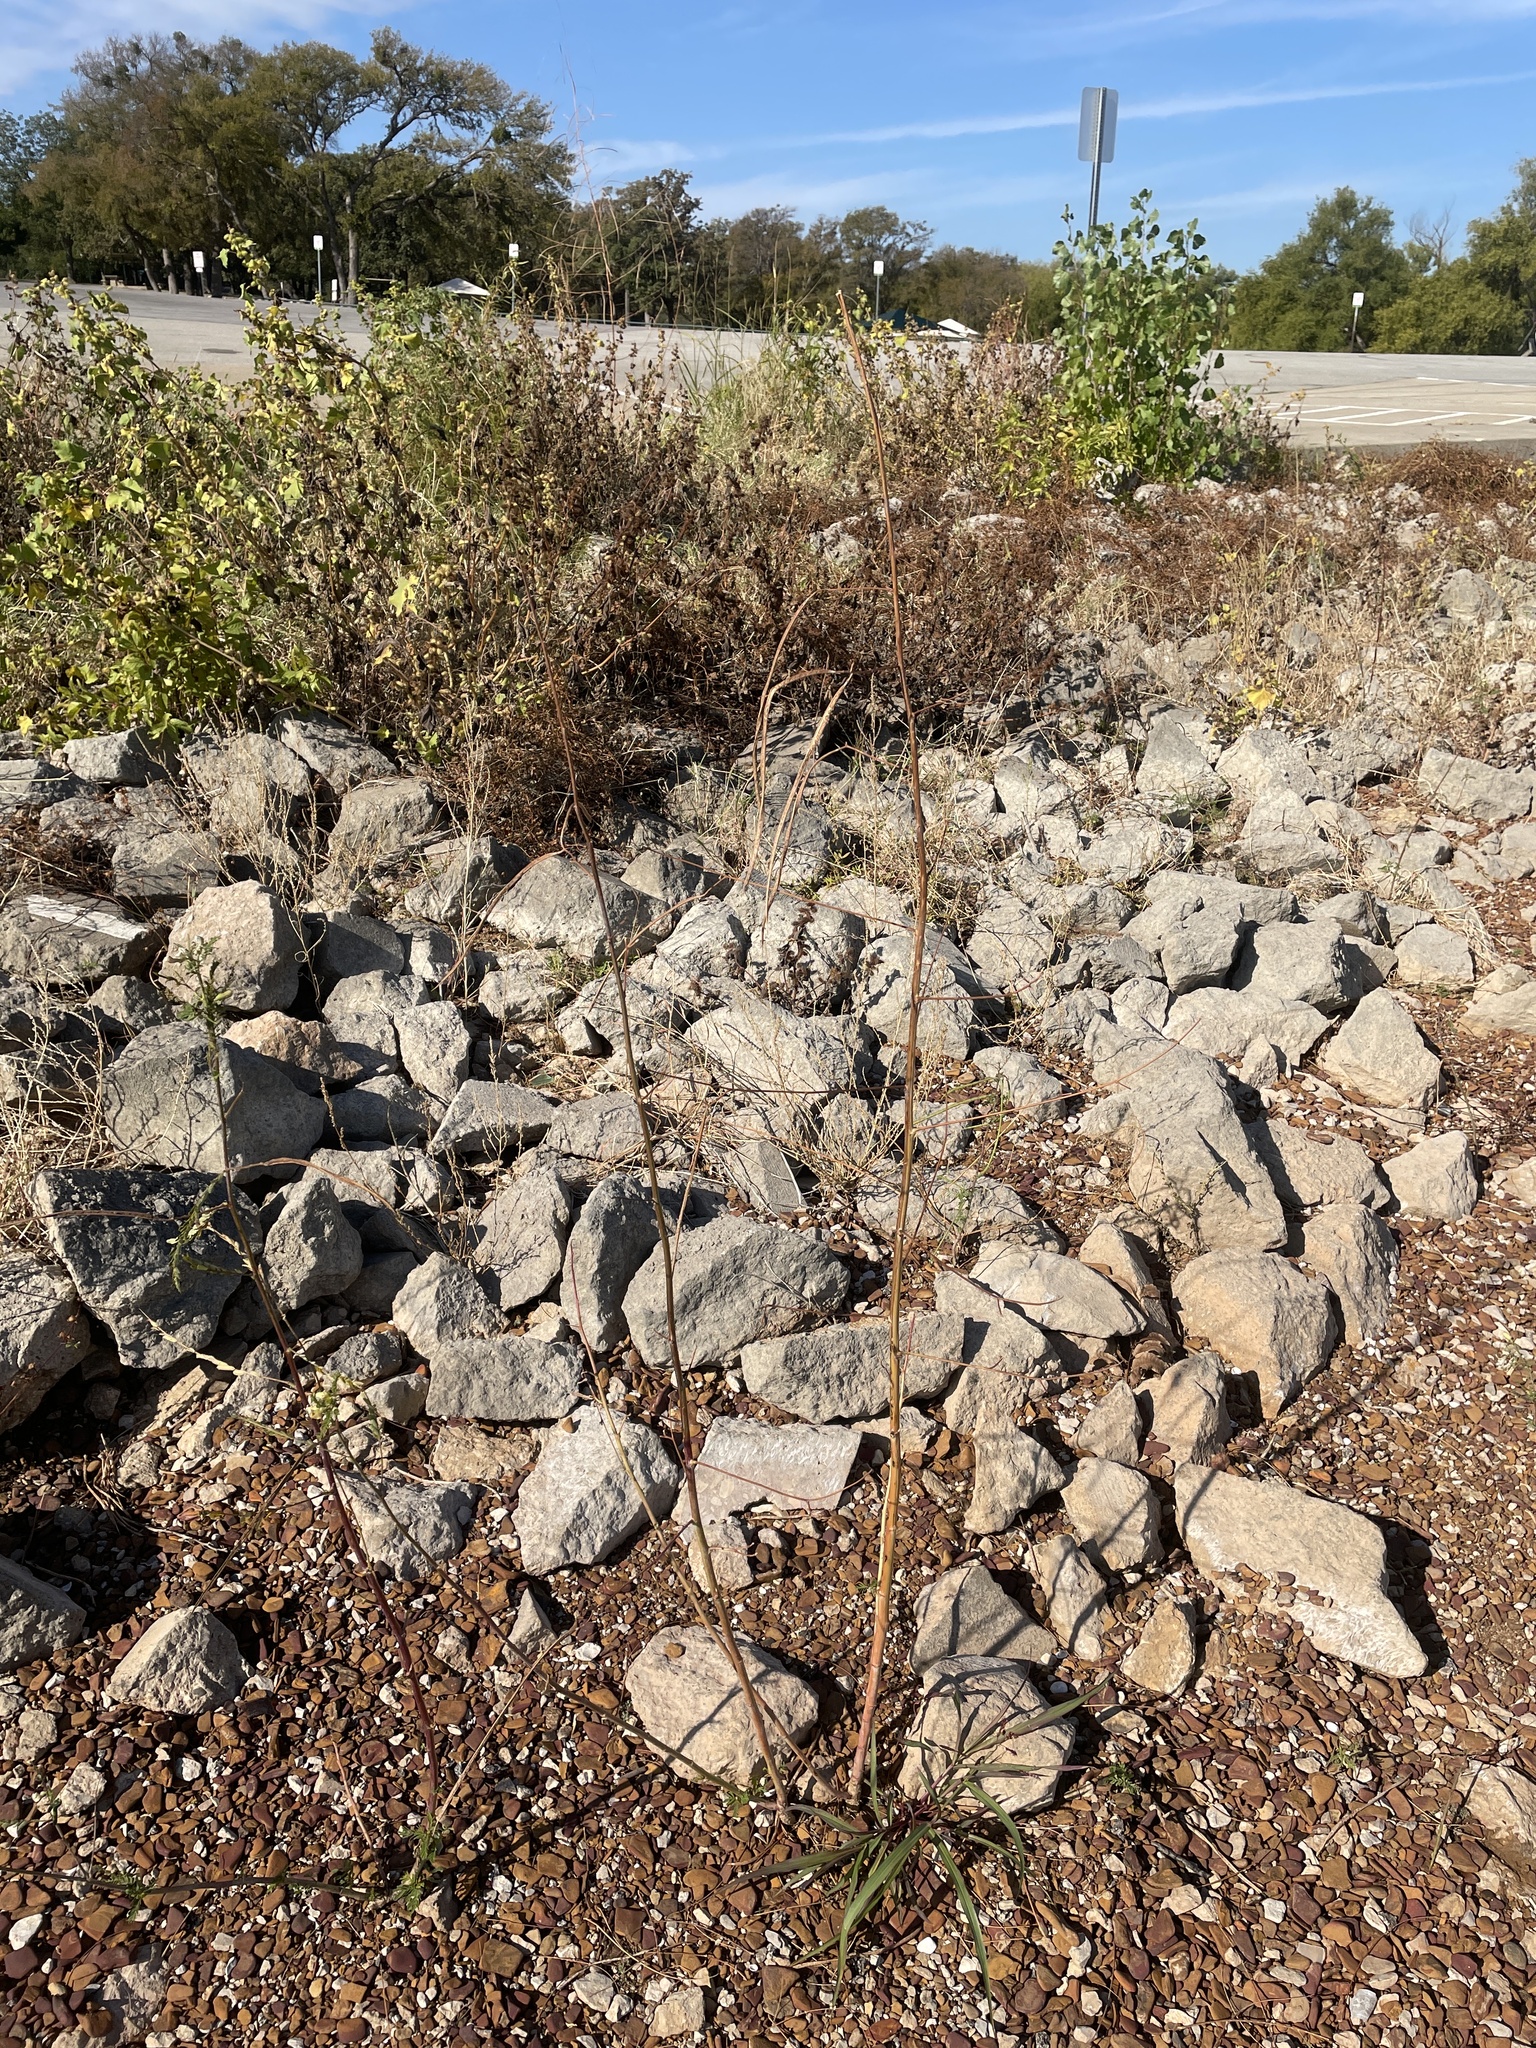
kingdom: Plantae
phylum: Tracheophyta
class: Magnoliopsida
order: Fabales
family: Fabaceae
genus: Sesbania
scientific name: Sesbania herbacea
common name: Bigpod sesbania
